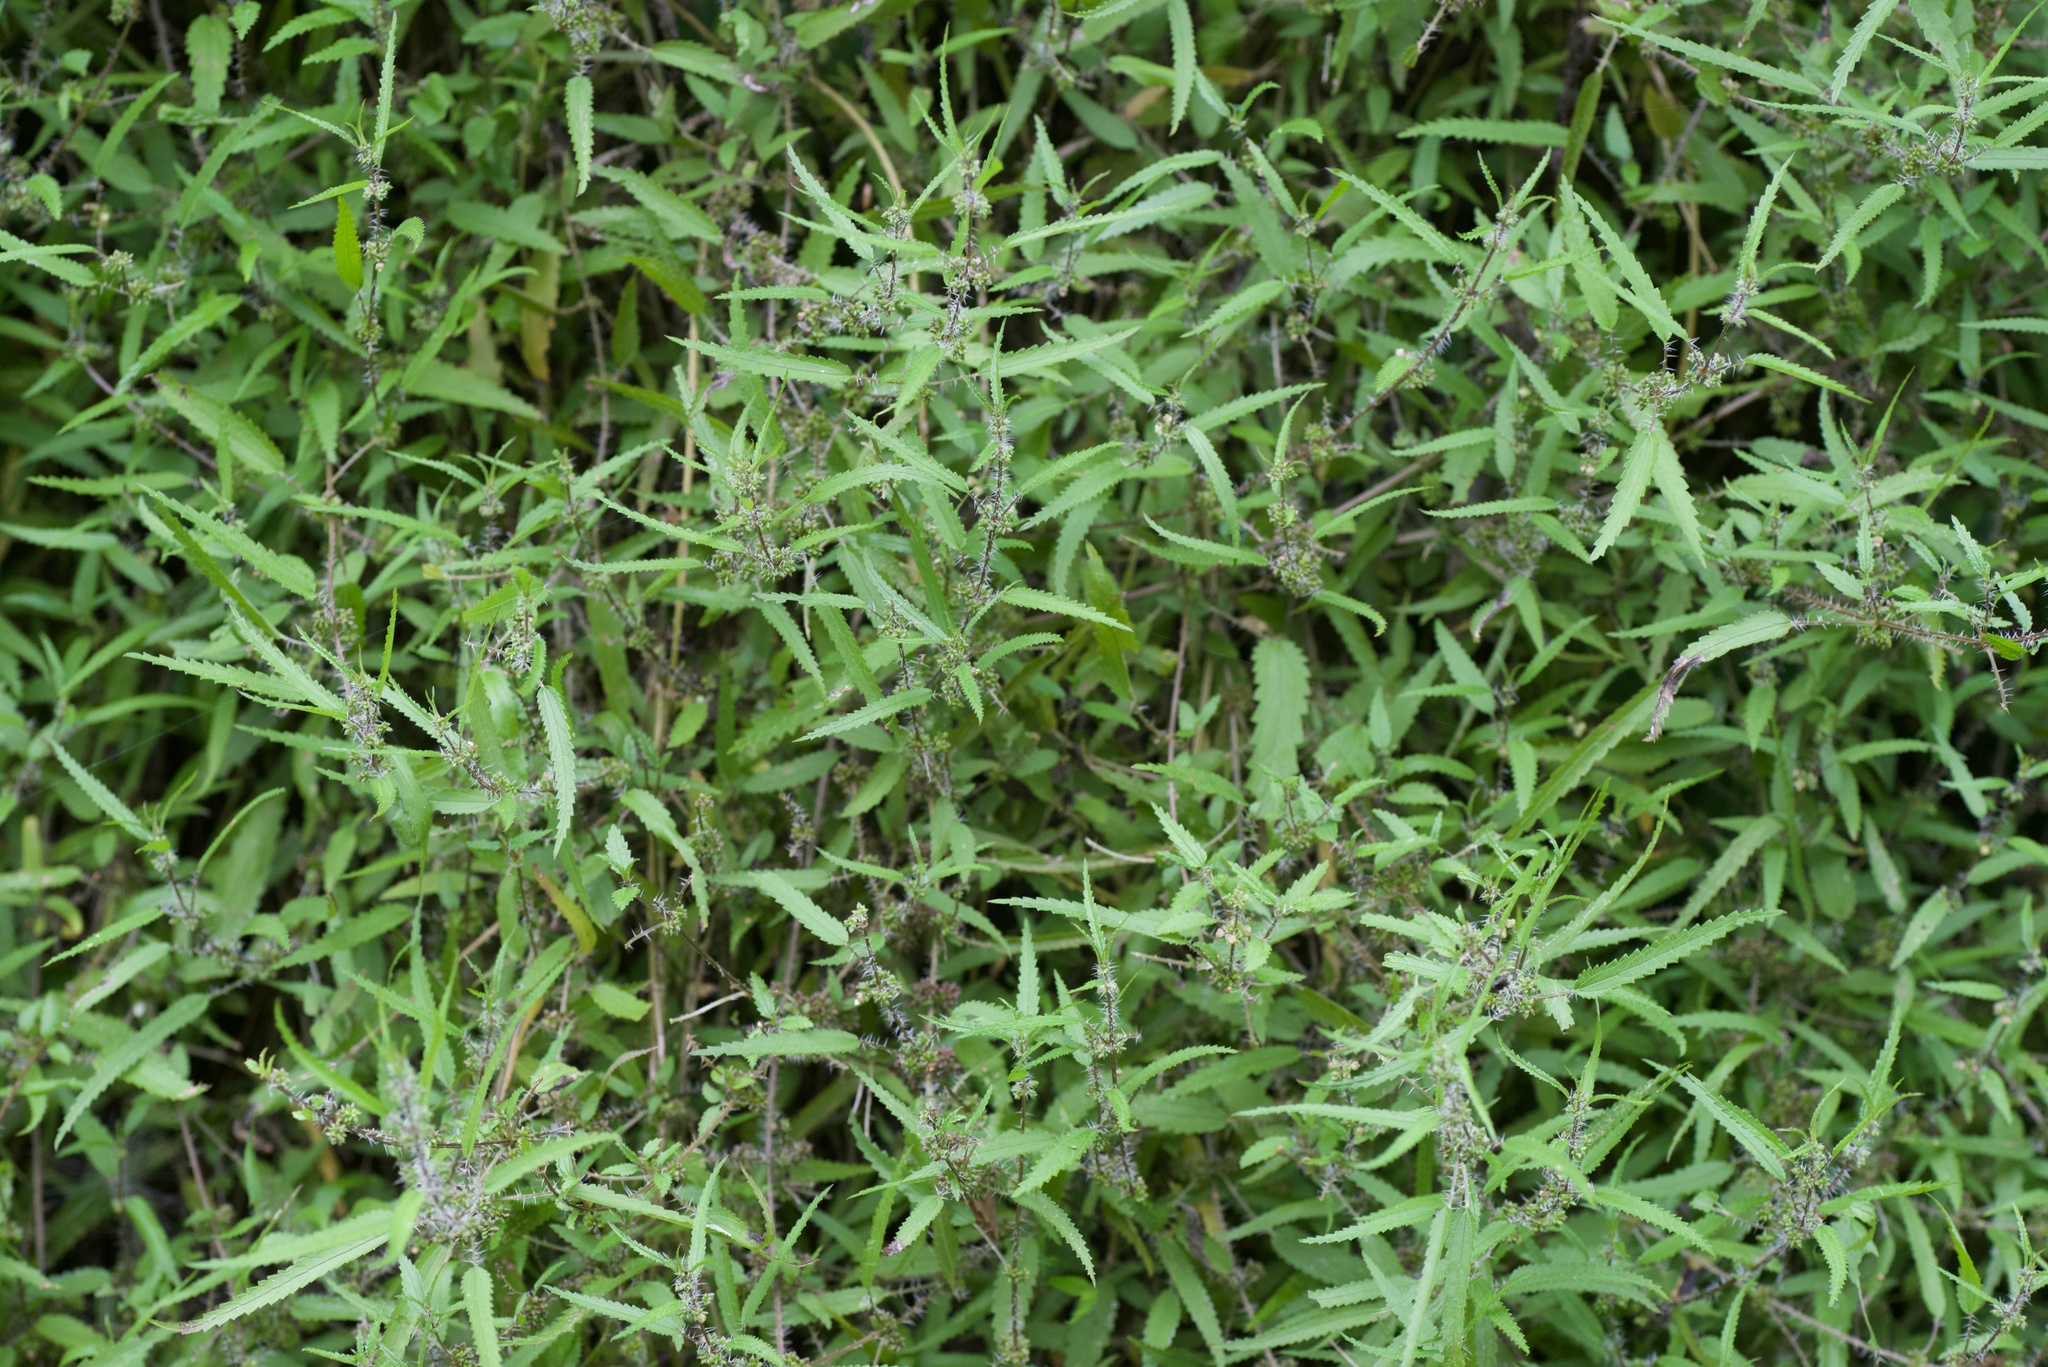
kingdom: Plantae
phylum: Tracheophyta
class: Magnoliopsida
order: Rosales
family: Urticaceae
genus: Urtica
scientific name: Urtica perconfusa
